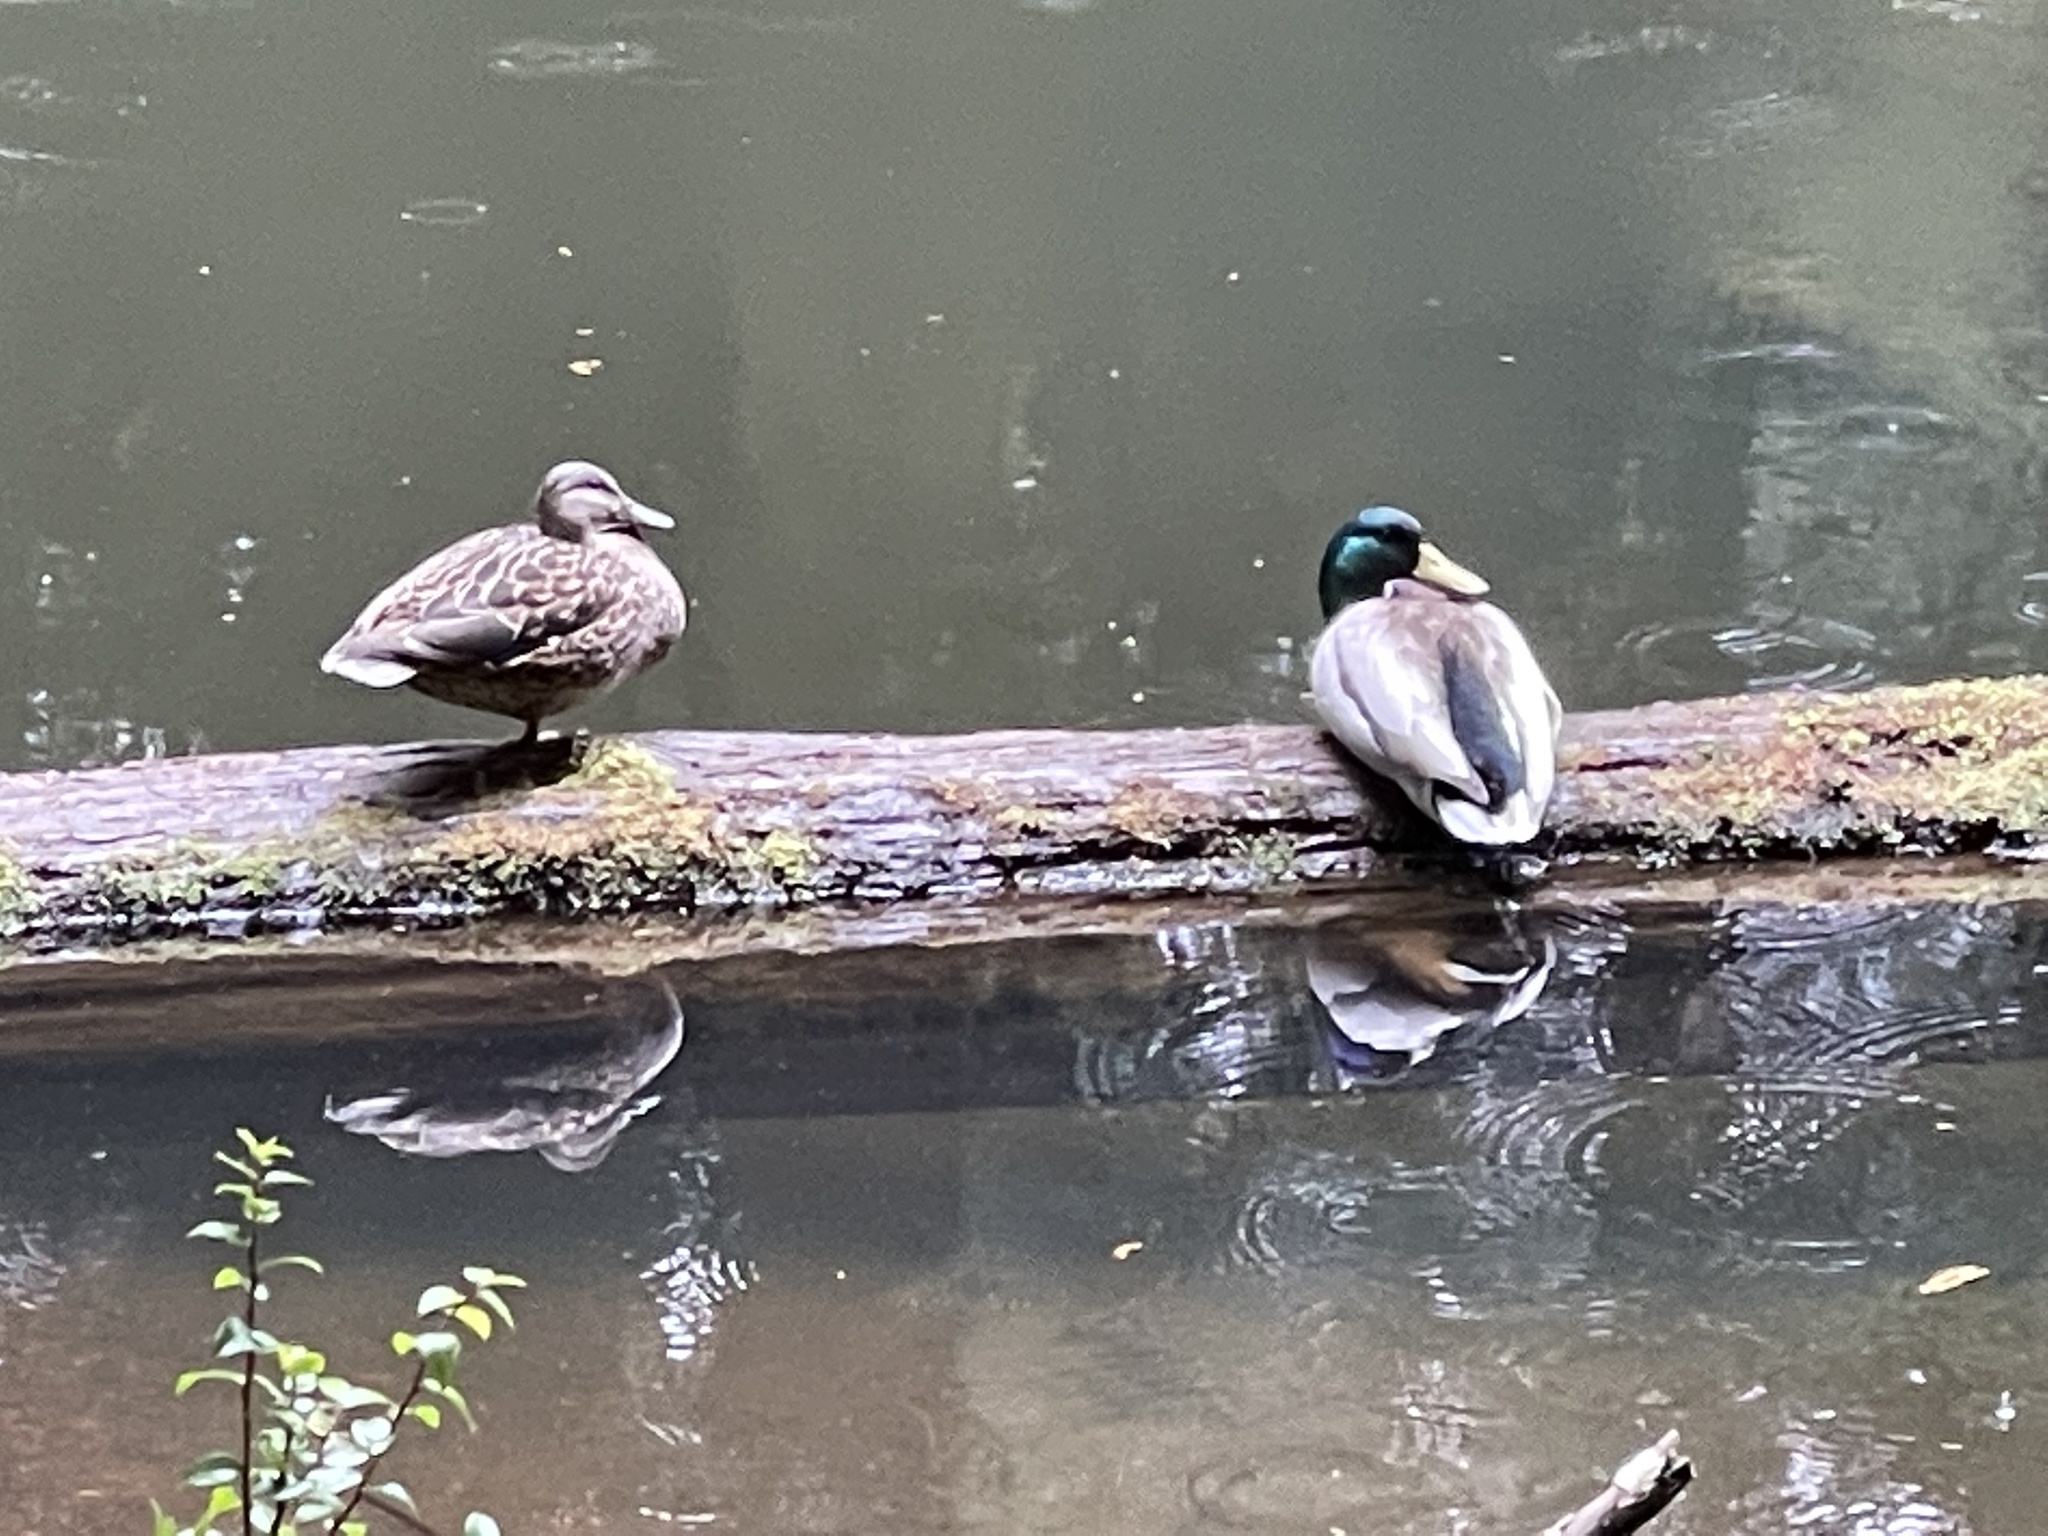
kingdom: Animalia
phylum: Chordata
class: Aves
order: Anseriformes
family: Anatidae
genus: Anas
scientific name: Anas platyrhynchos
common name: Mallard
